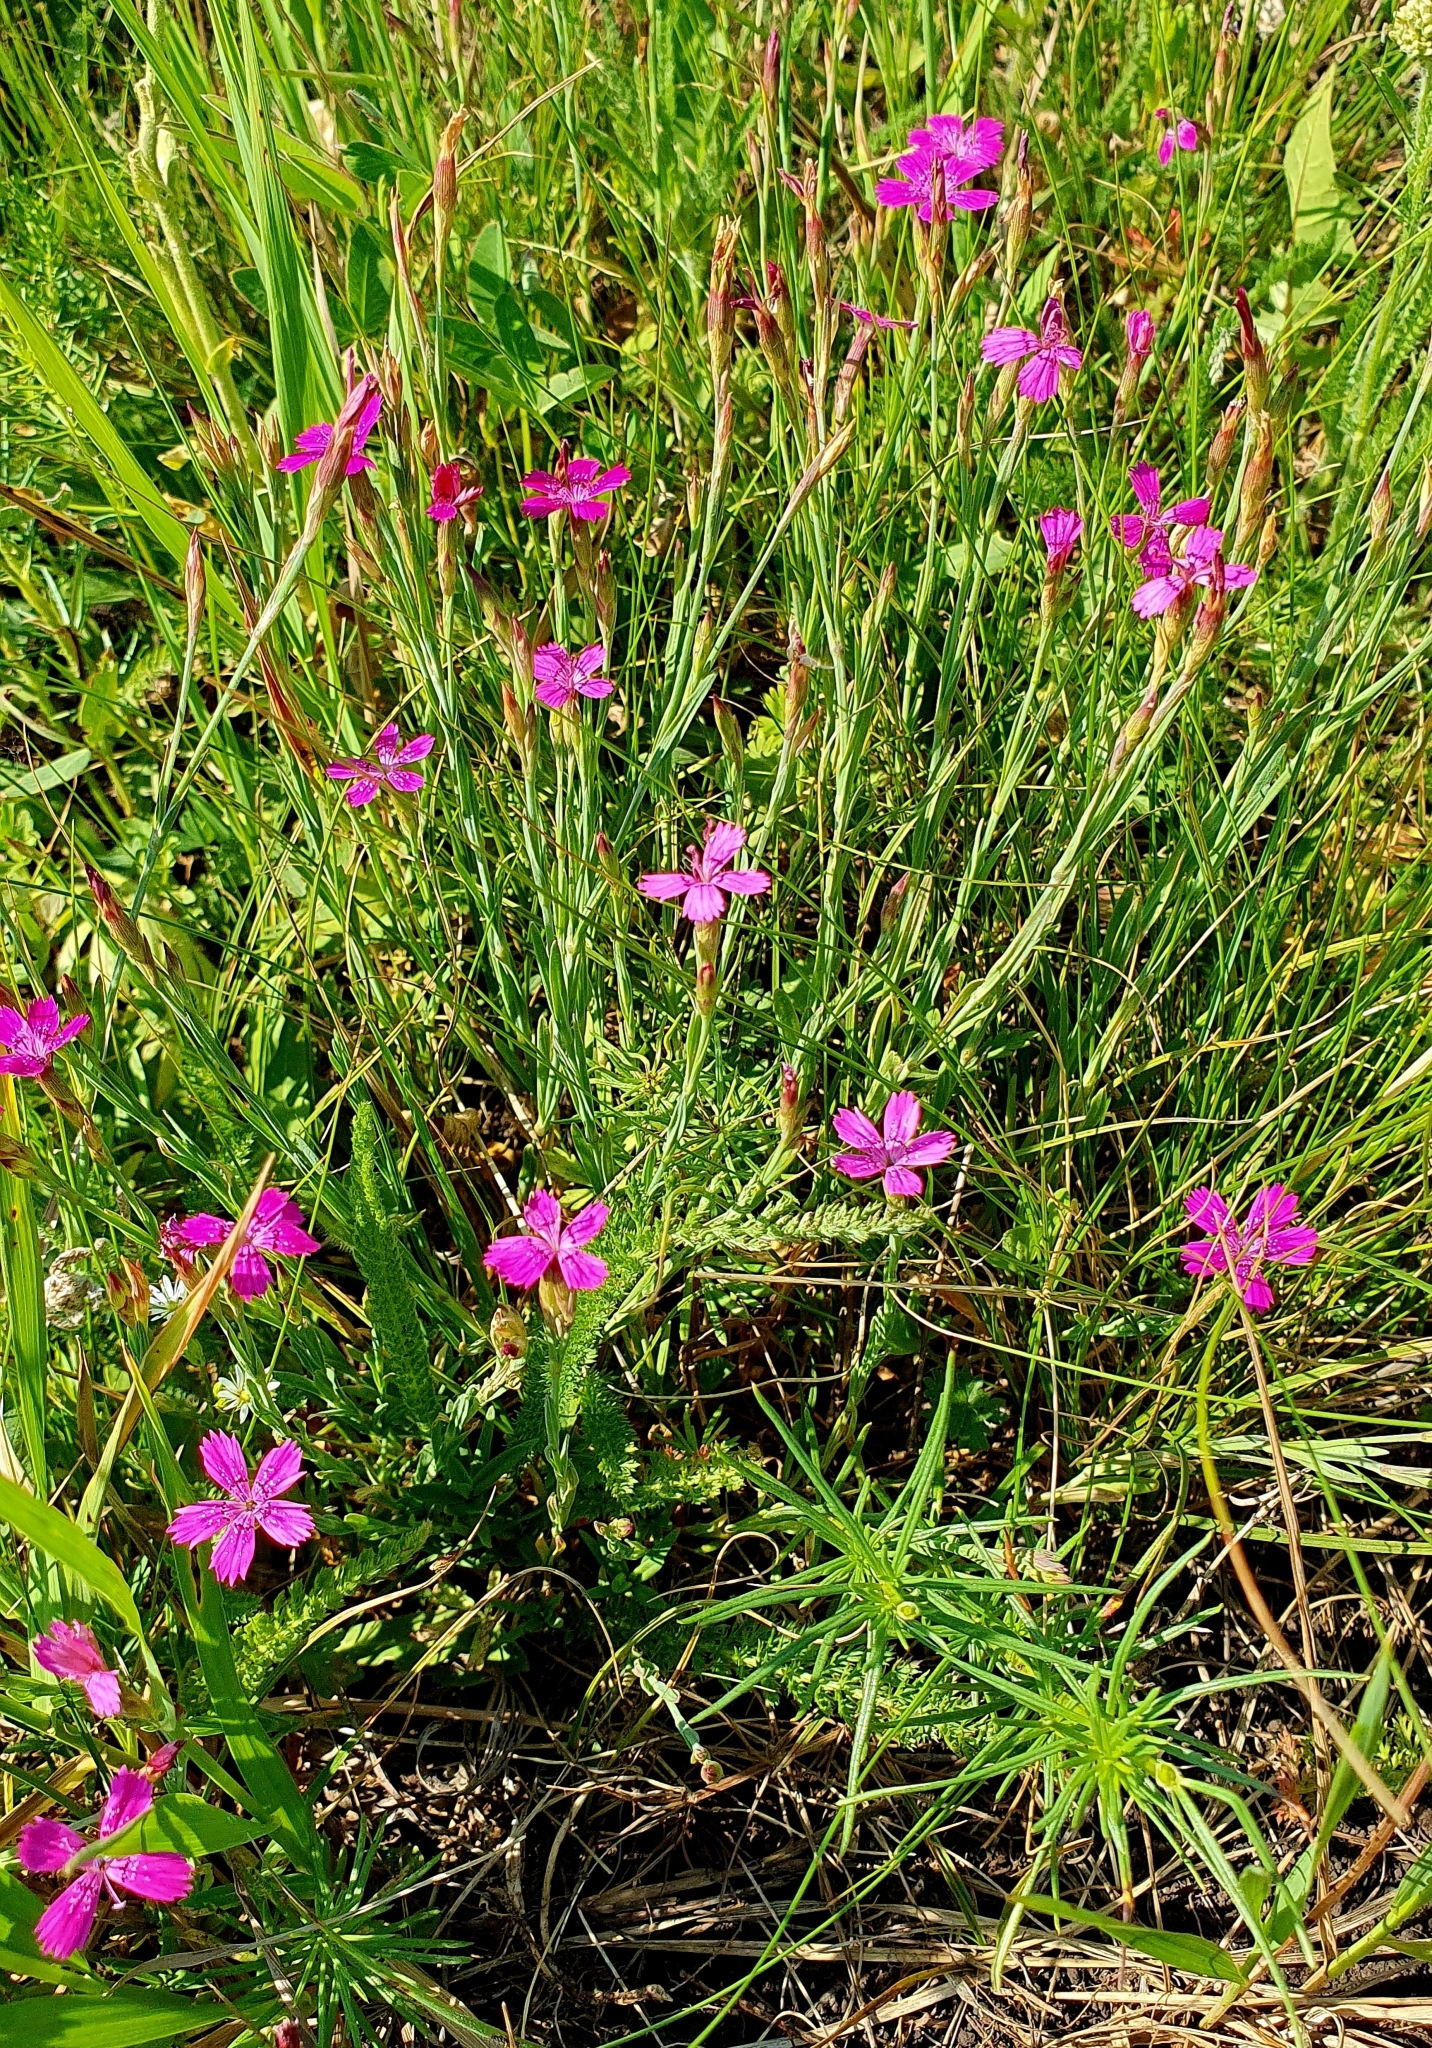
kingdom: Plantae
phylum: Tracheophyta
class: Magnoliopsida
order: Caryophyllales
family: Caryophyllaceae
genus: Dianthus
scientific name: Dianthus deltoides
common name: Maiden pink
